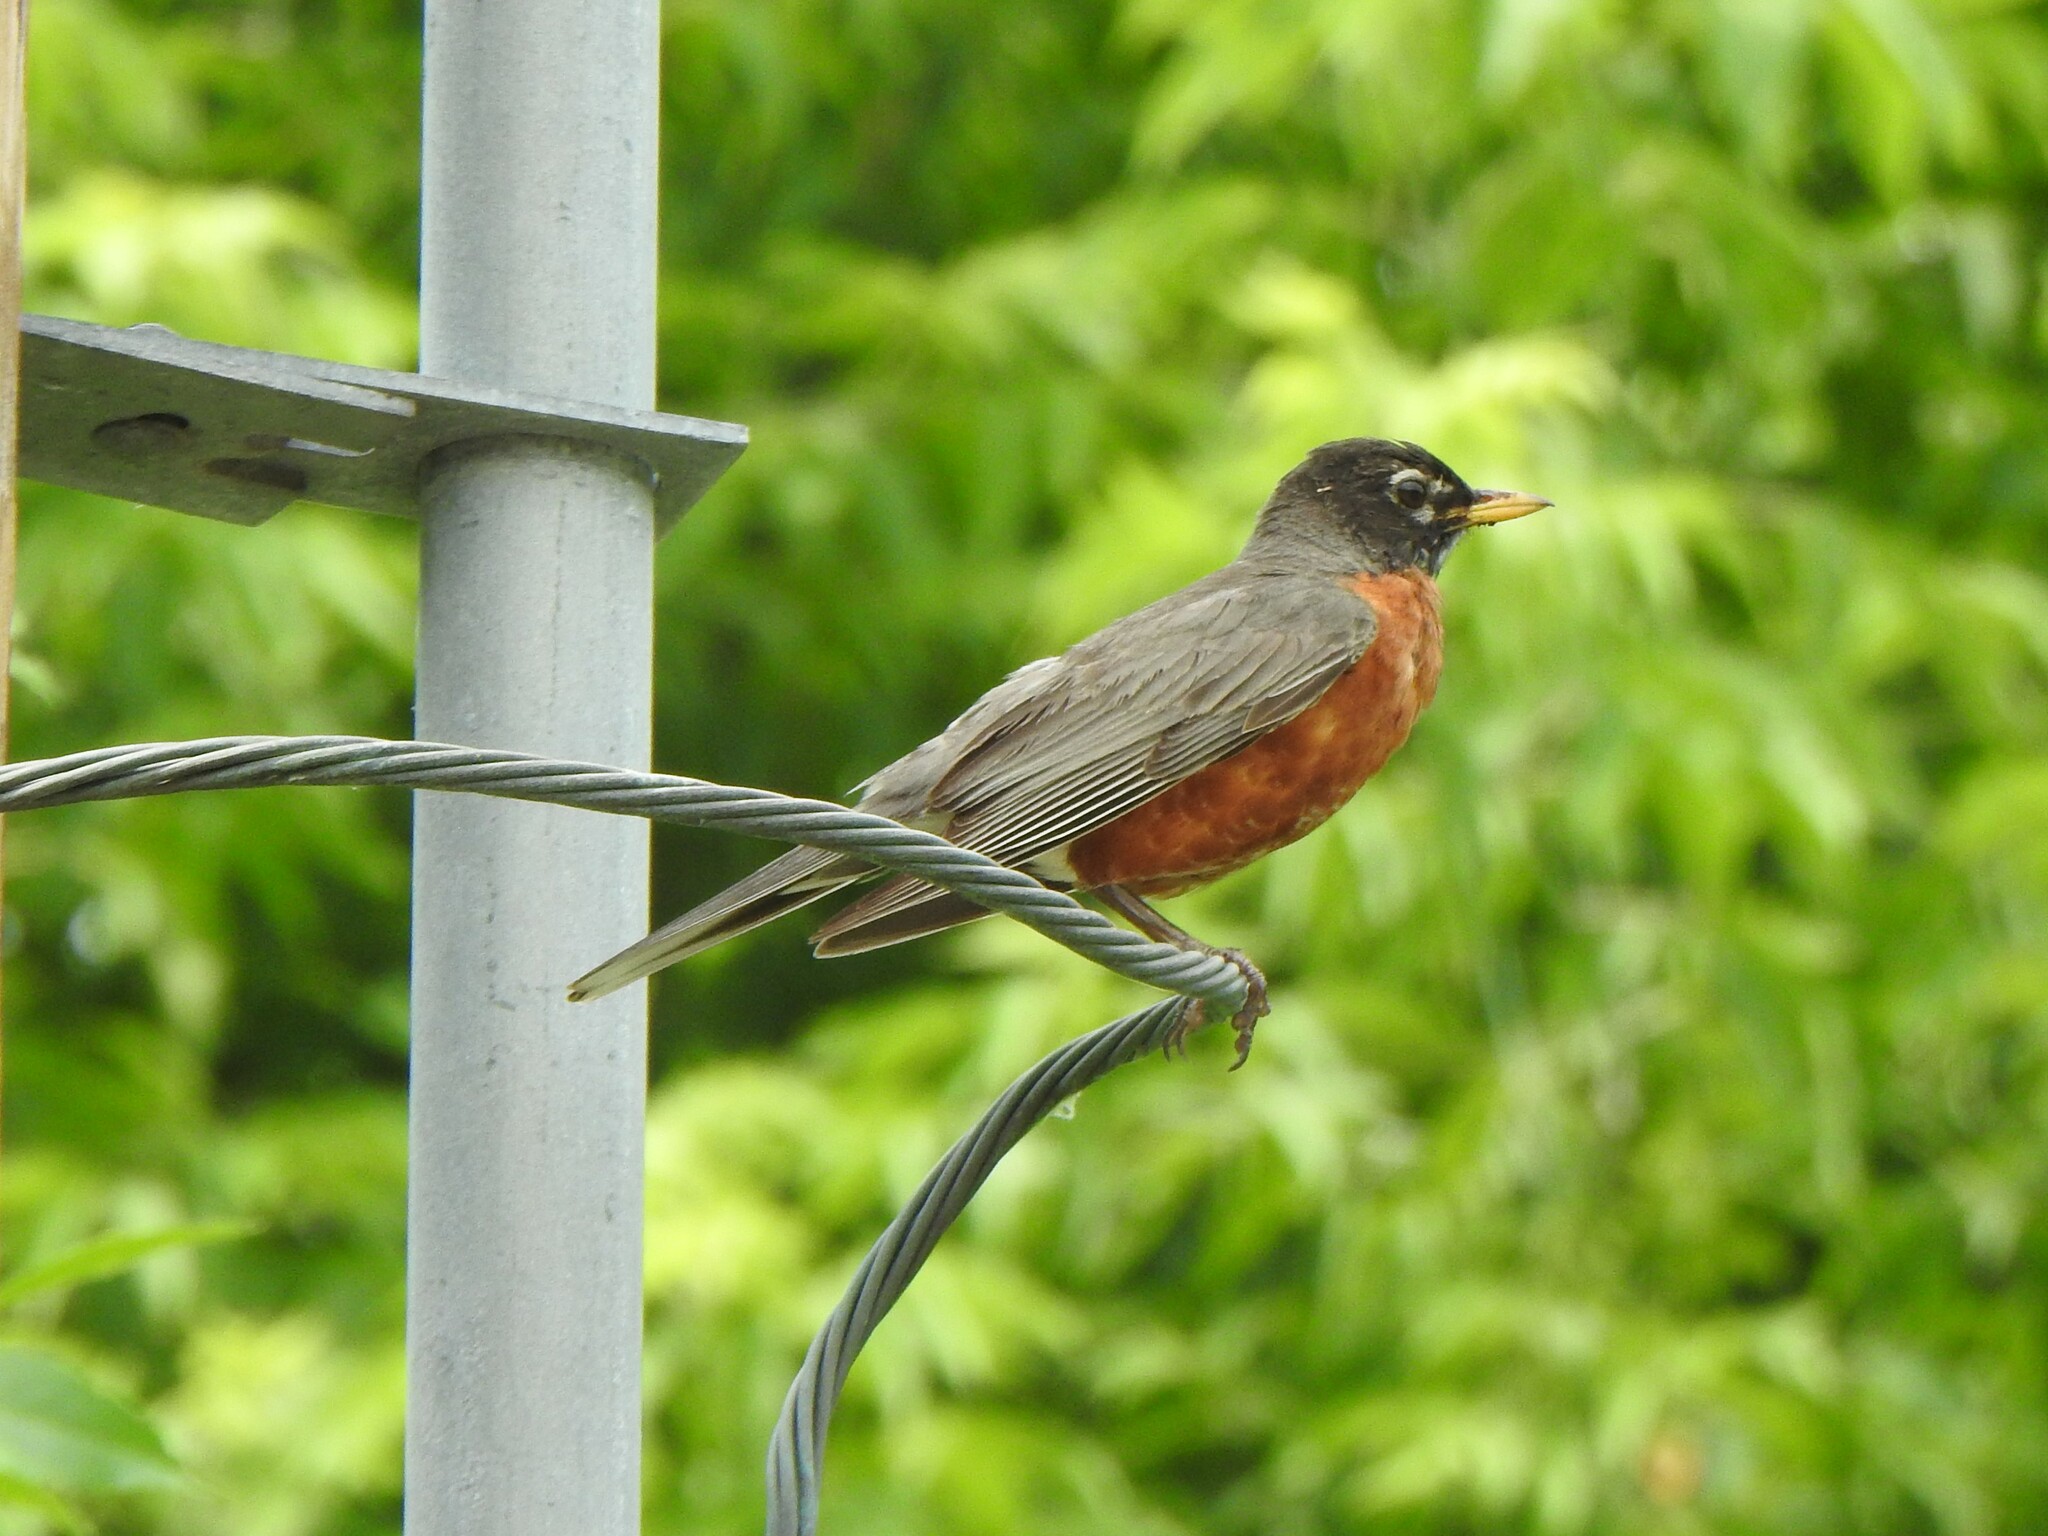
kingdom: Animalia
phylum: Chordata
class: Aves
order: Passeriformes
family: Turdidae
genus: Turdus
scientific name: Turdus migratorius
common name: American robin
